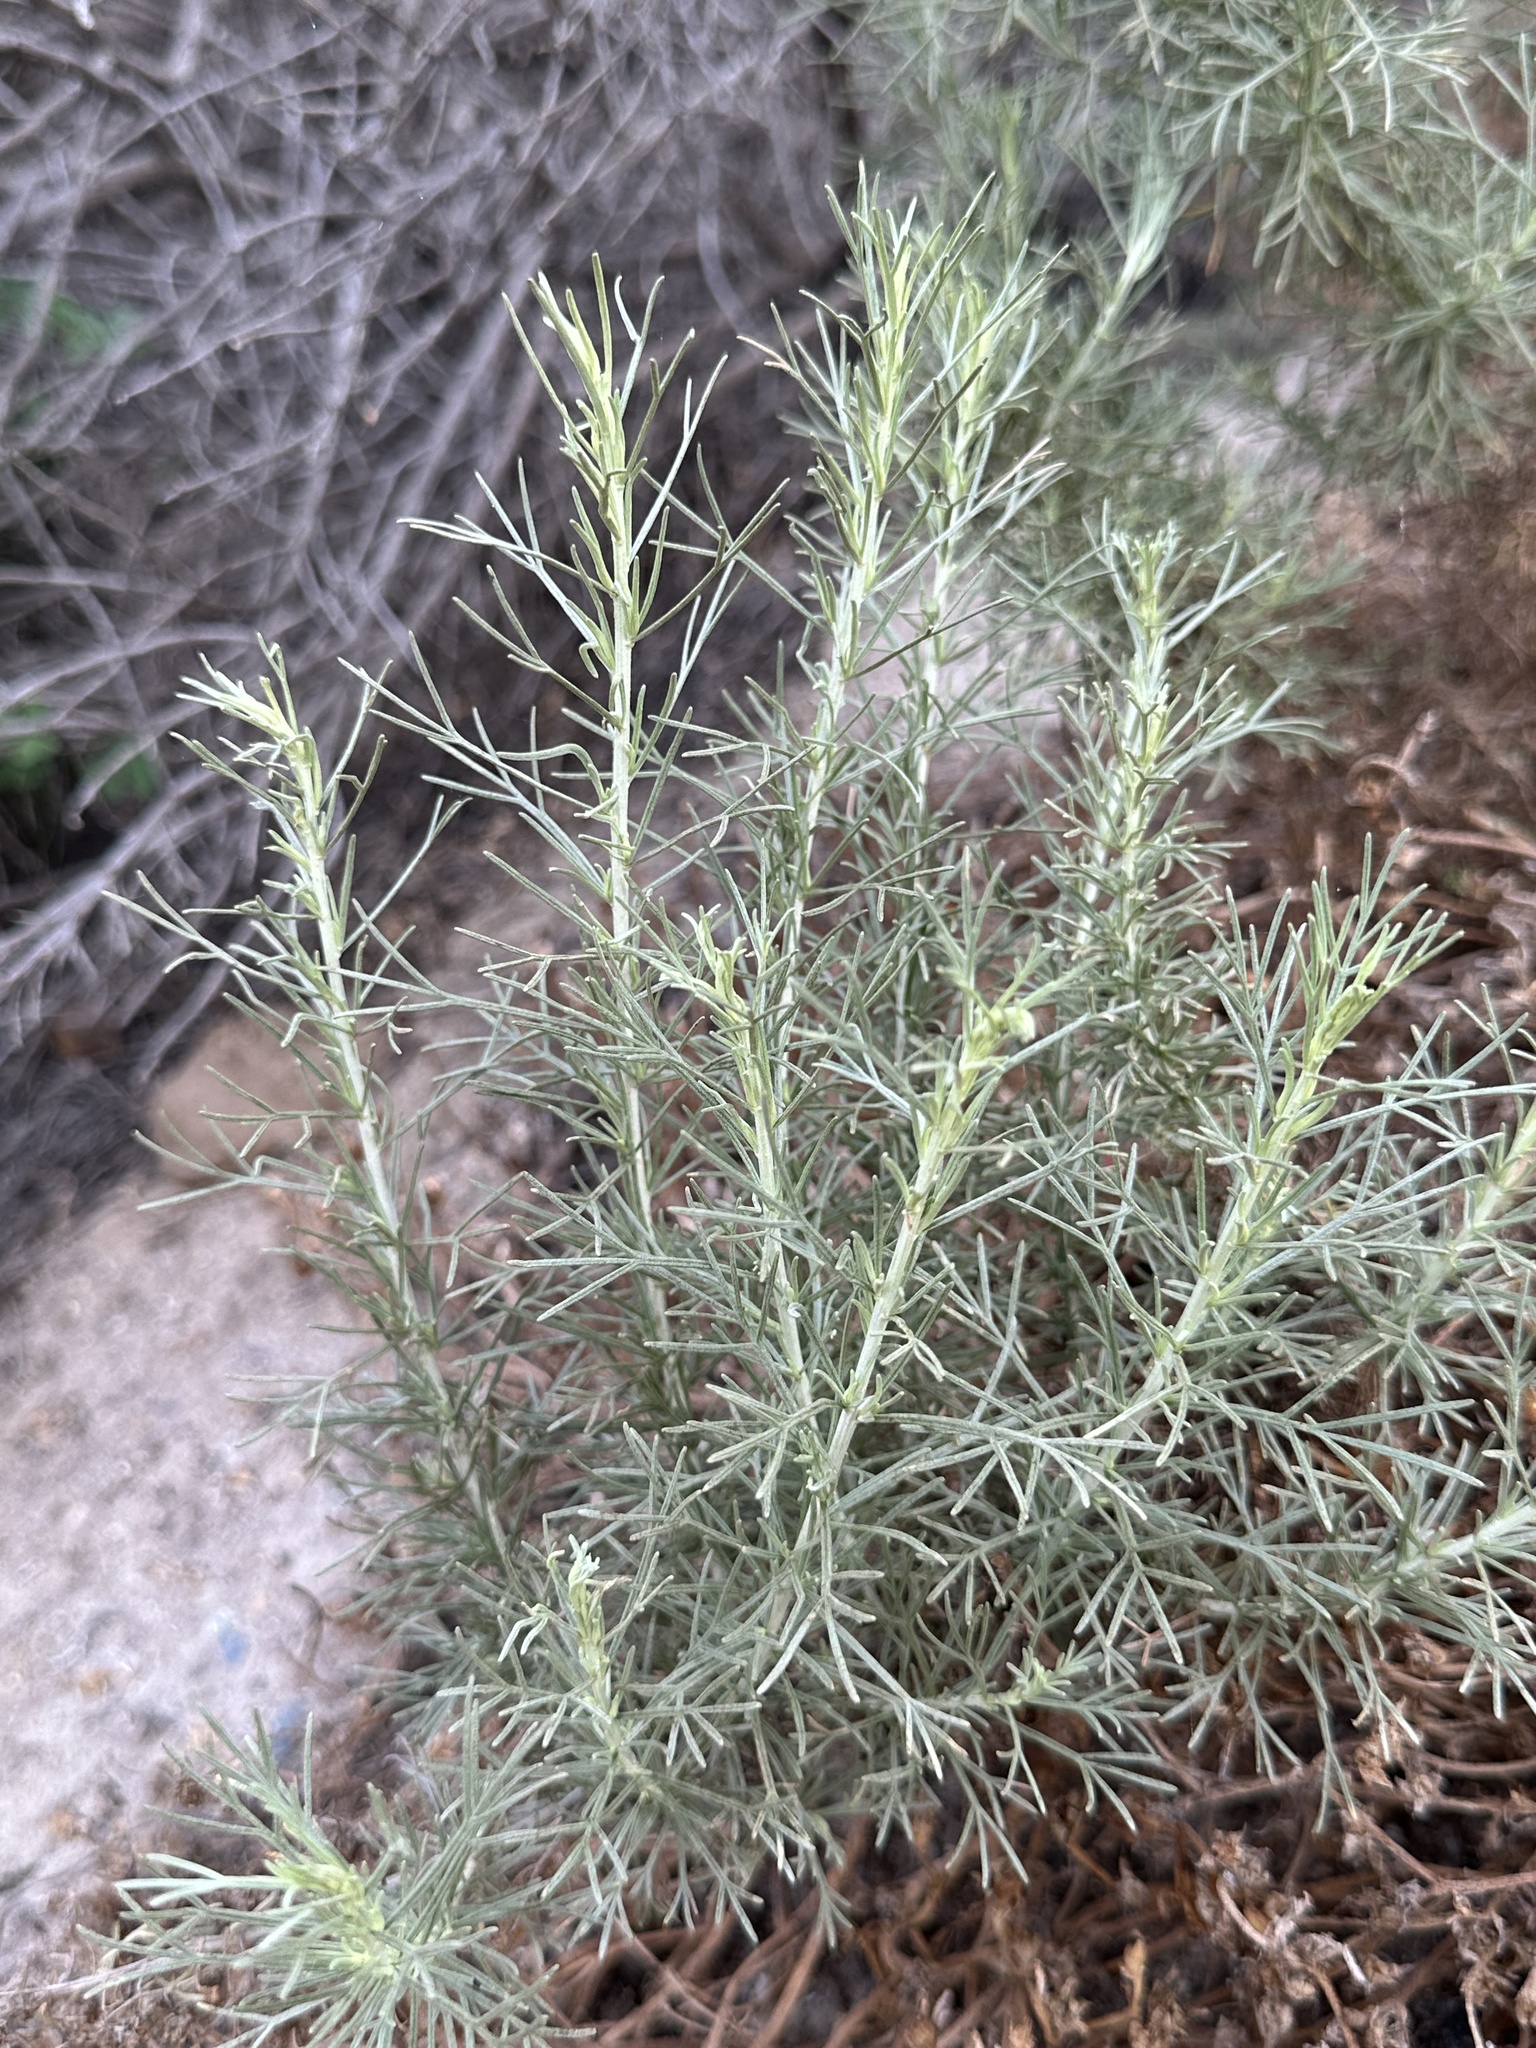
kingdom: Plantae
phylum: Tracheophyta
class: Magnoliopsida
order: Asterales
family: Asteraceae
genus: Artemisia
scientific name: Artemisia californica
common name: California sagebrush
